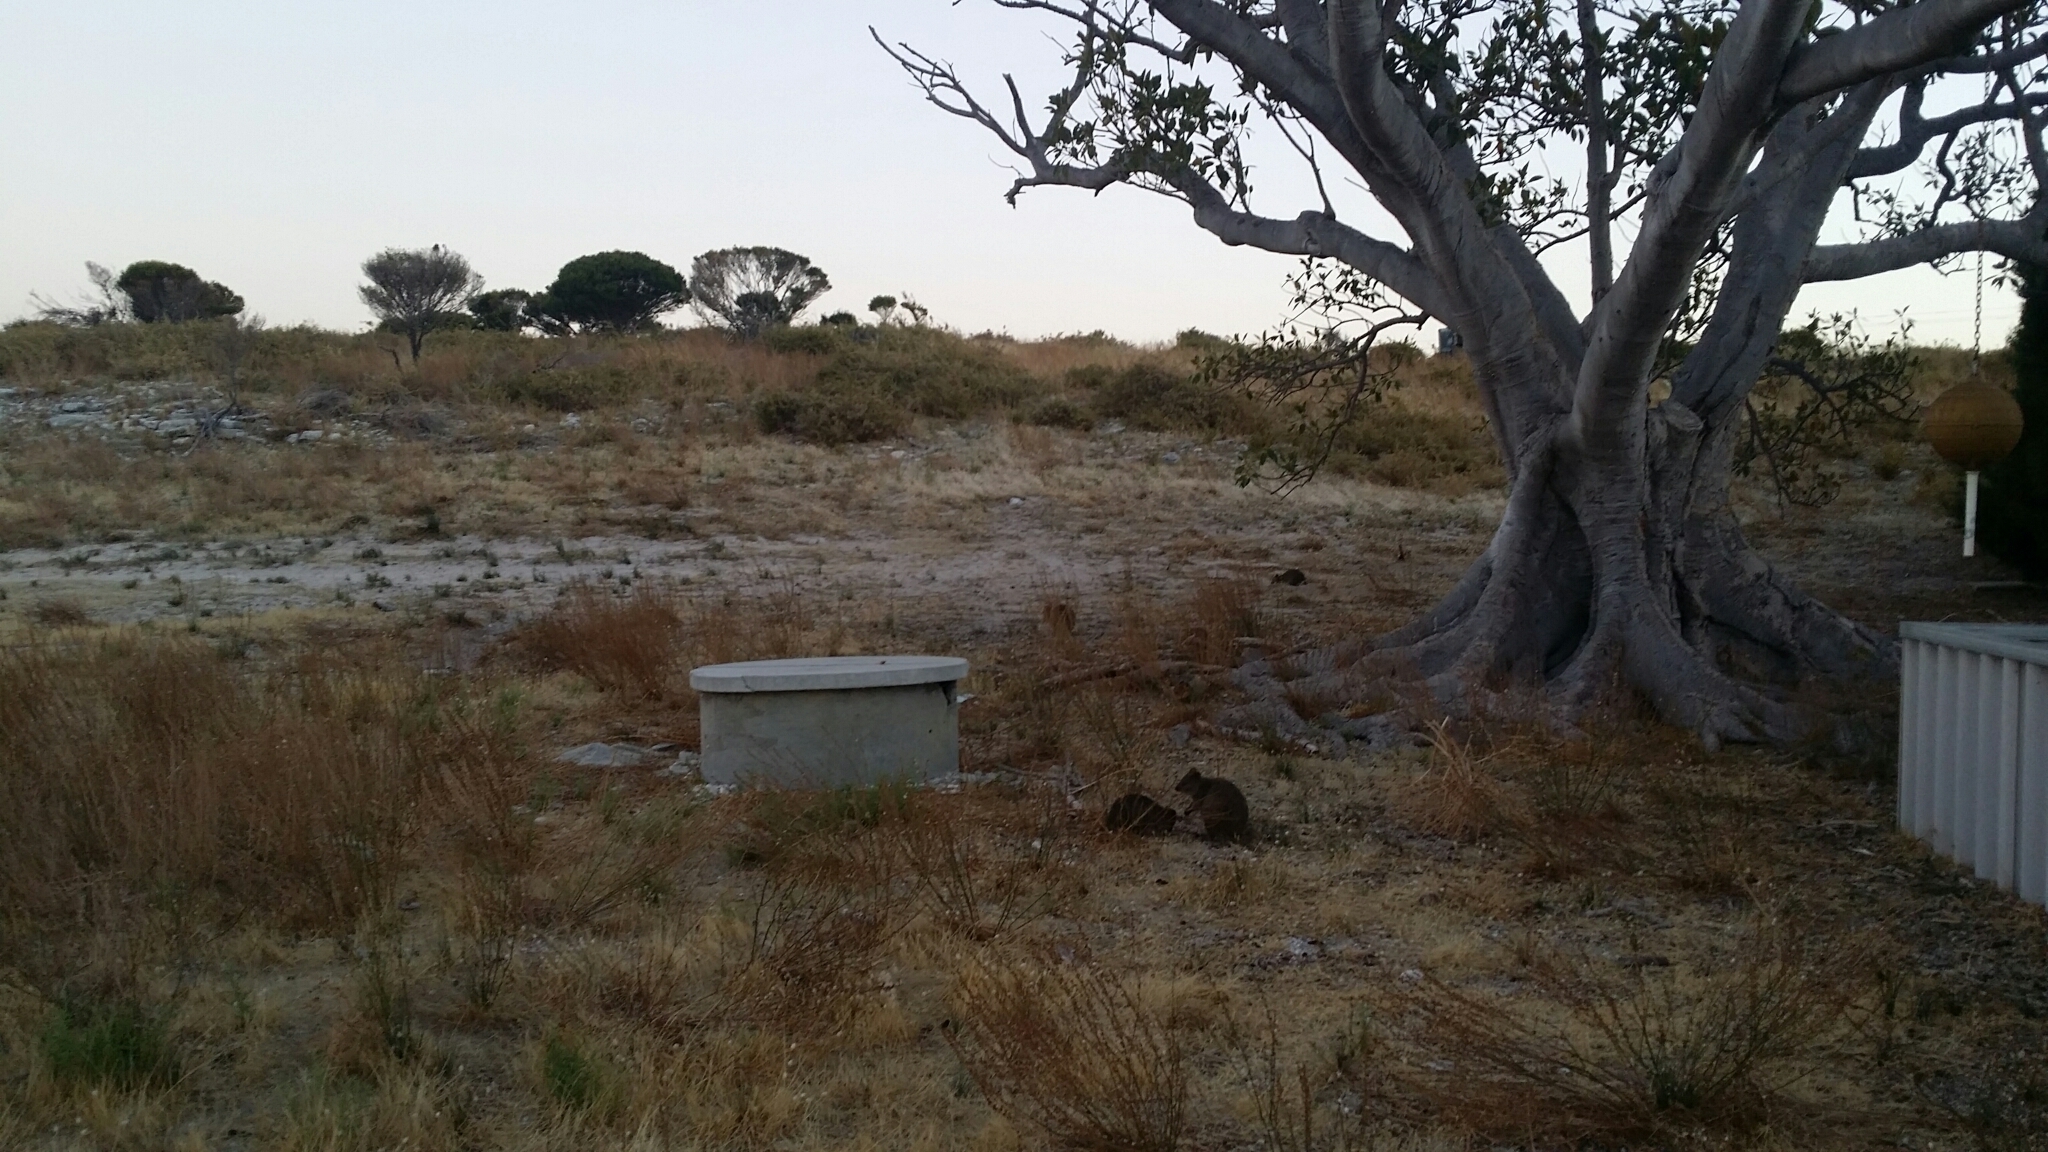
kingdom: Animalia
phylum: Chordata
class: Mammalia
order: Diprotodontia
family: Macropodidae
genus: Setonix
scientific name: Setonix brachyurus
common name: Quokka
